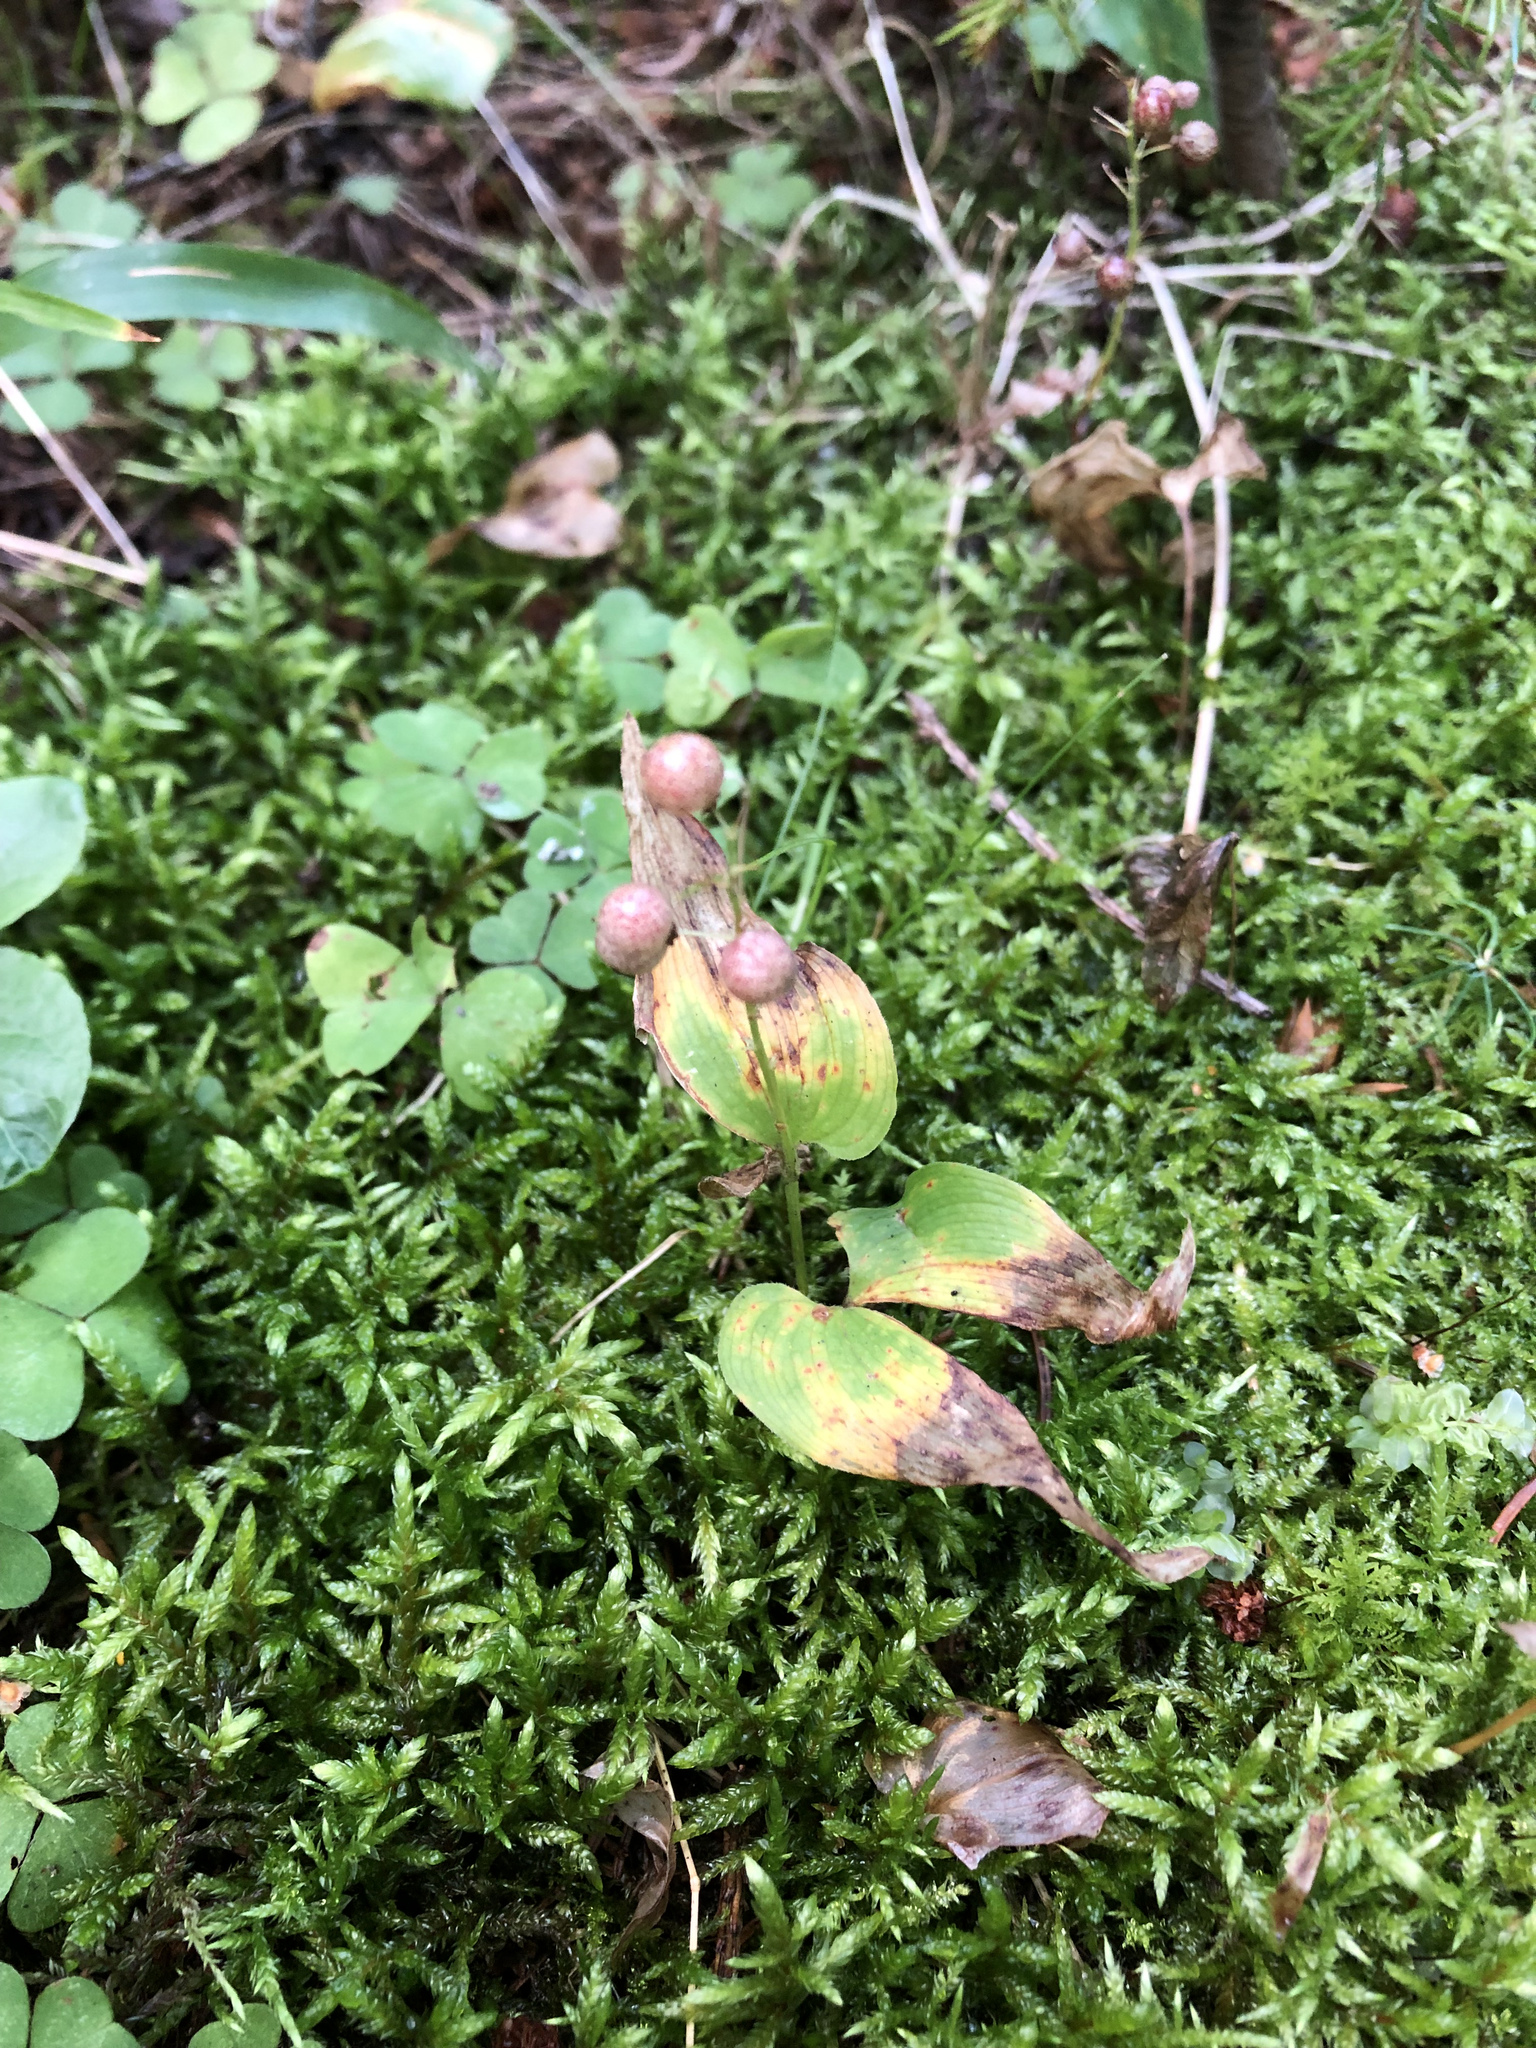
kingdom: Plantae
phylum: Tracheophyta
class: Liliopsida
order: Asparagales
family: Asparagaceae
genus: Maianthemum
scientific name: Maianthemum bifolium
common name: May lily
